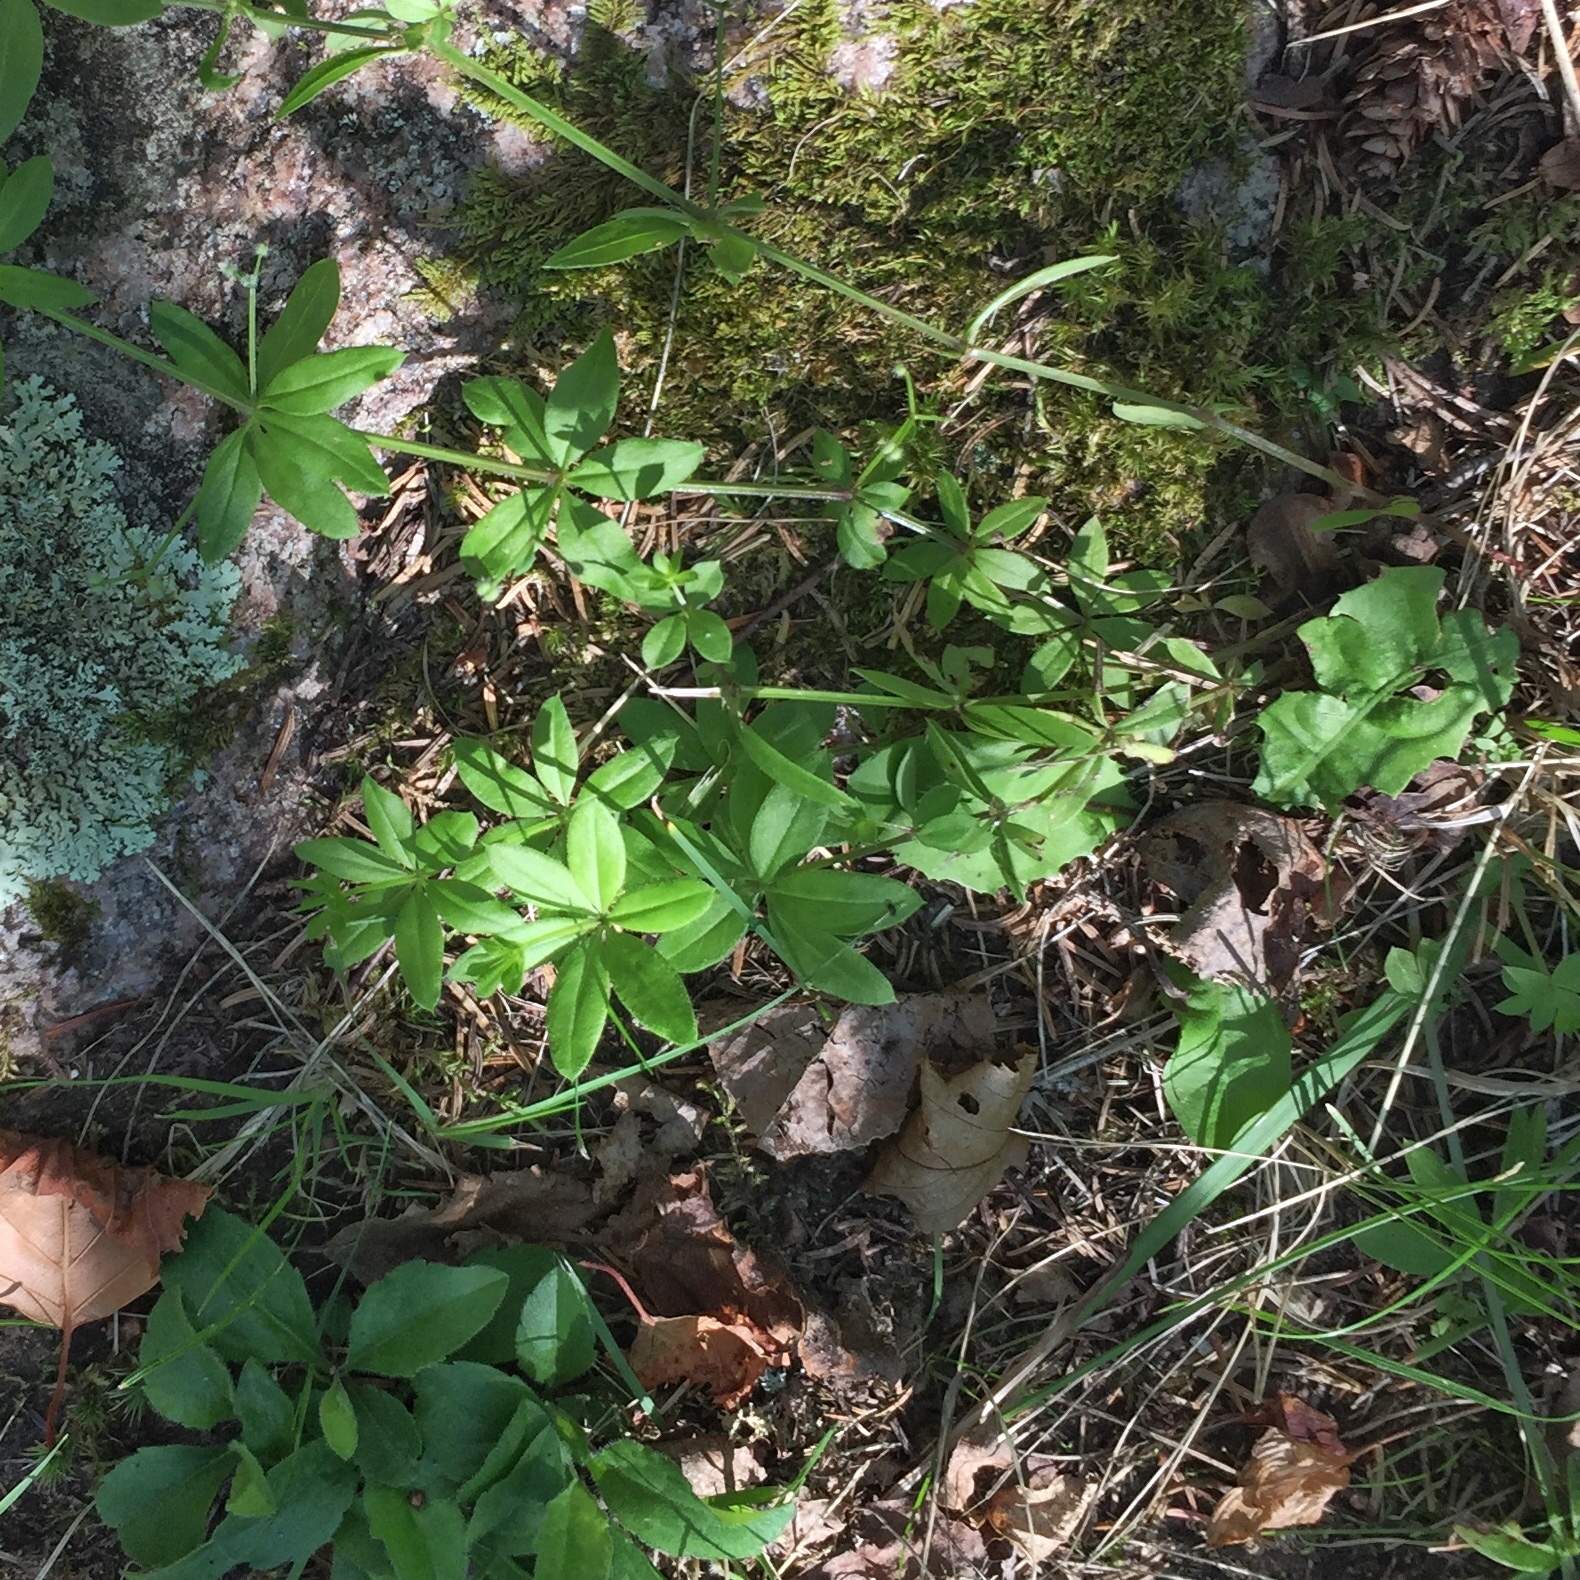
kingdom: Plantae
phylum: Tracheophyta
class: Magnoliopsida
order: Gentianales
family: Rubiaceae
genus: Galium
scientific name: Galium triflorum
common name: Fragrant bedstraw
